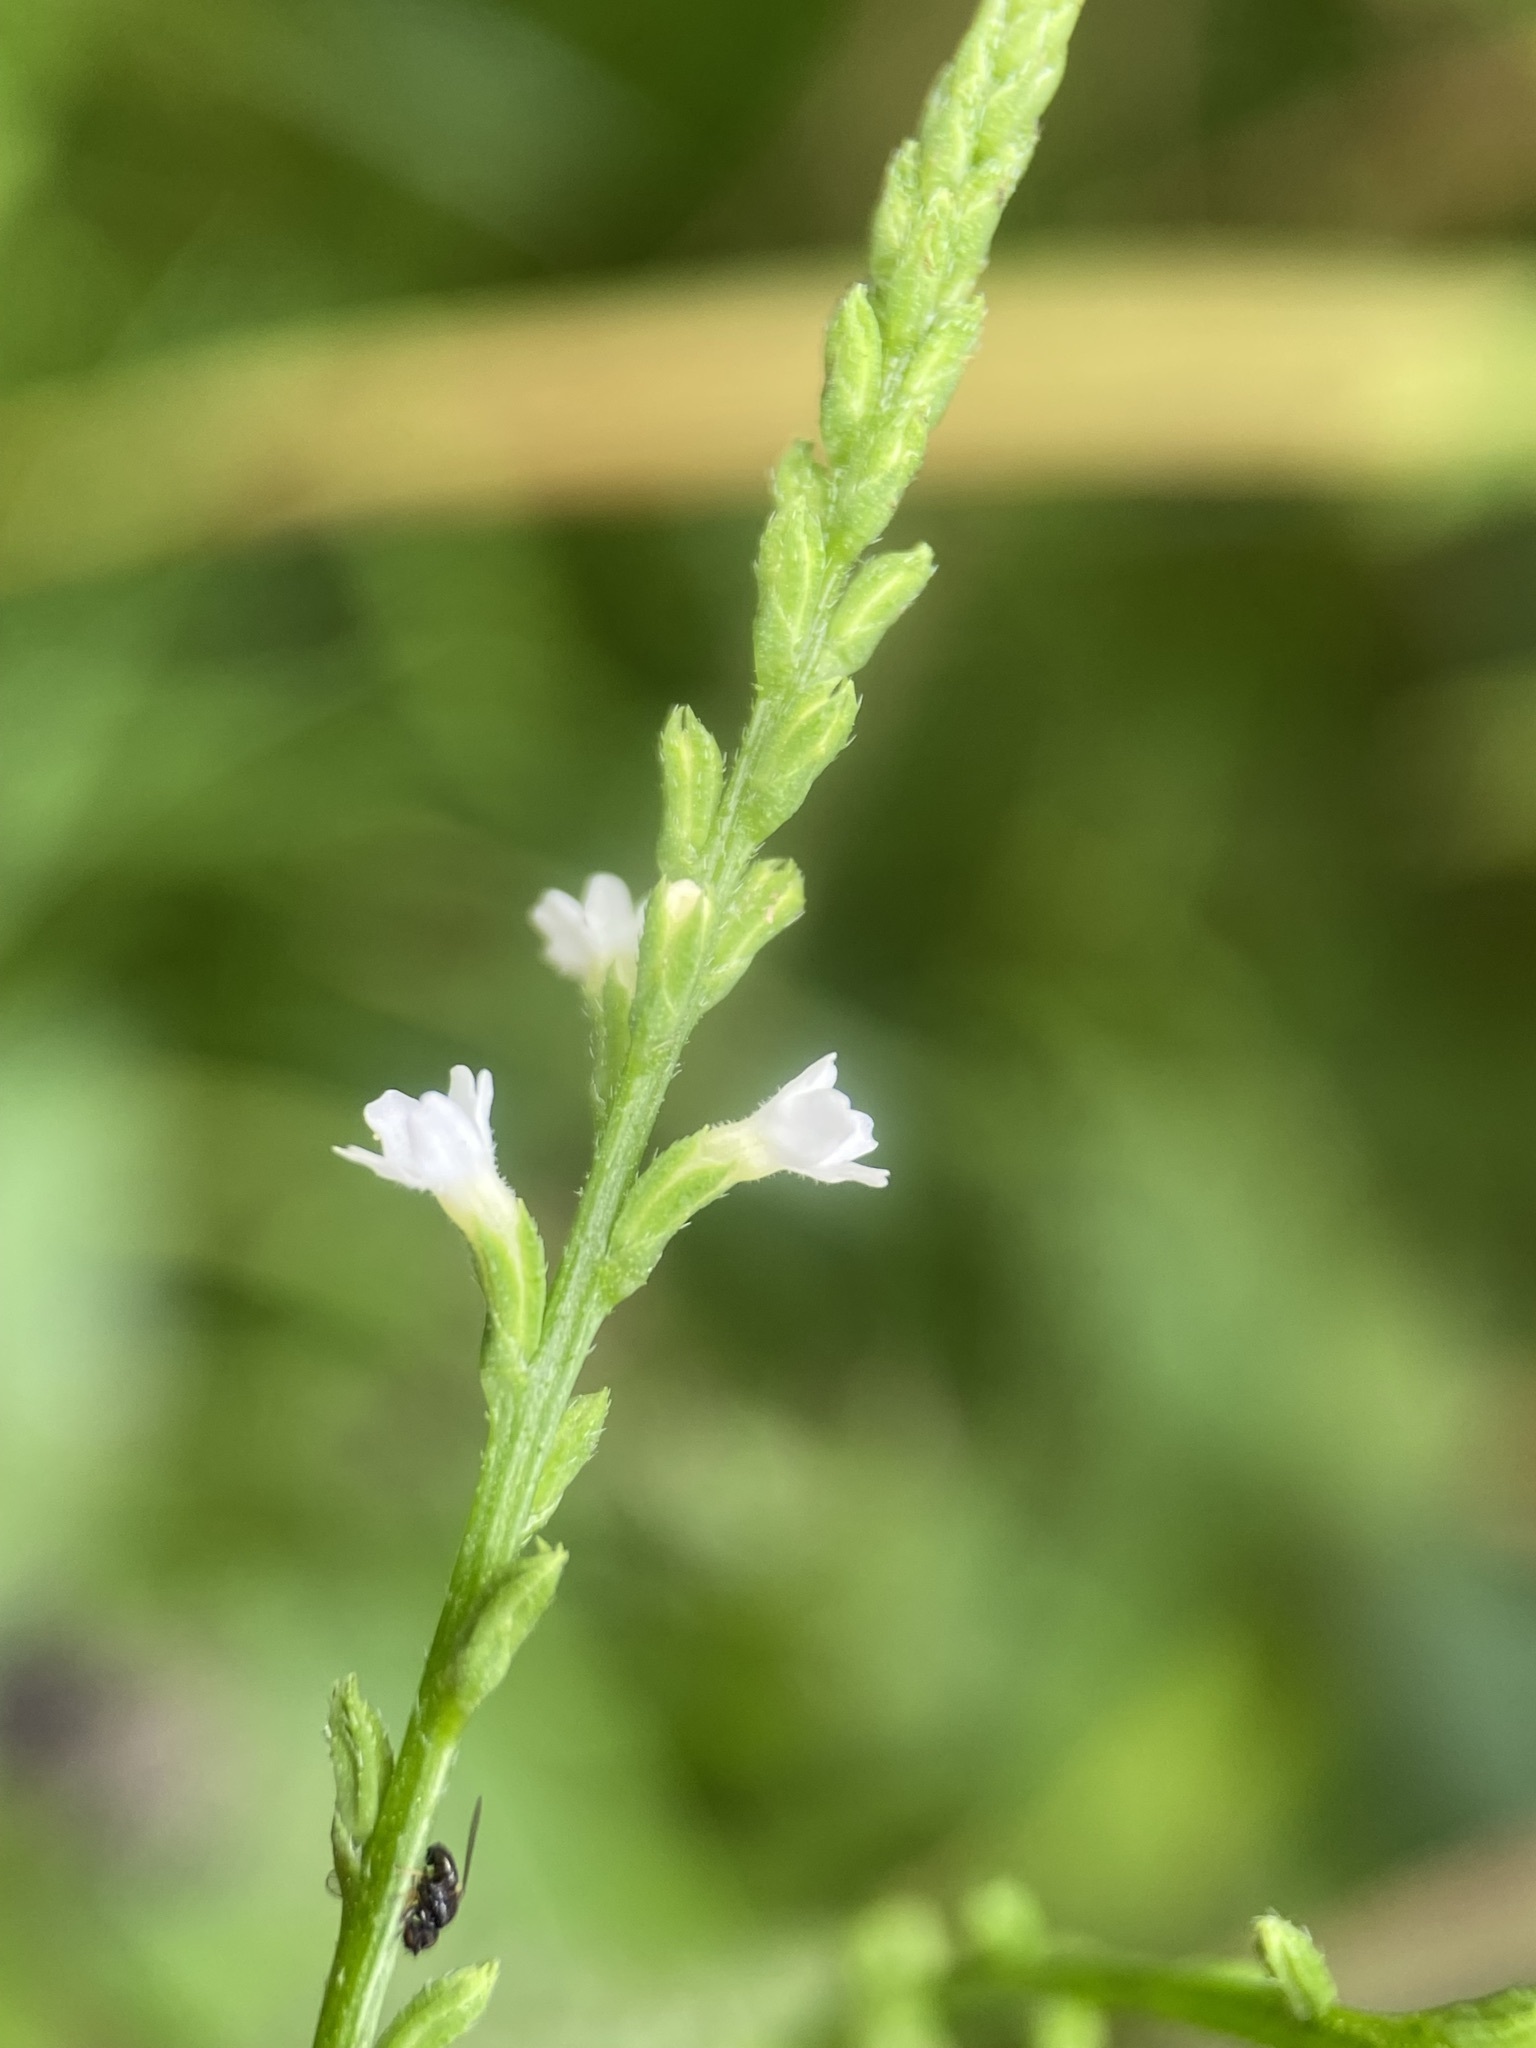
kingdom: Plantae
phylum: Tracheophyta
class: Magnoliopsida
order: Lamiales
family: Verbenaceae
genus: Verbena
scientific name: Verbena urticifolia
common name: Nettle-leaved vervain
